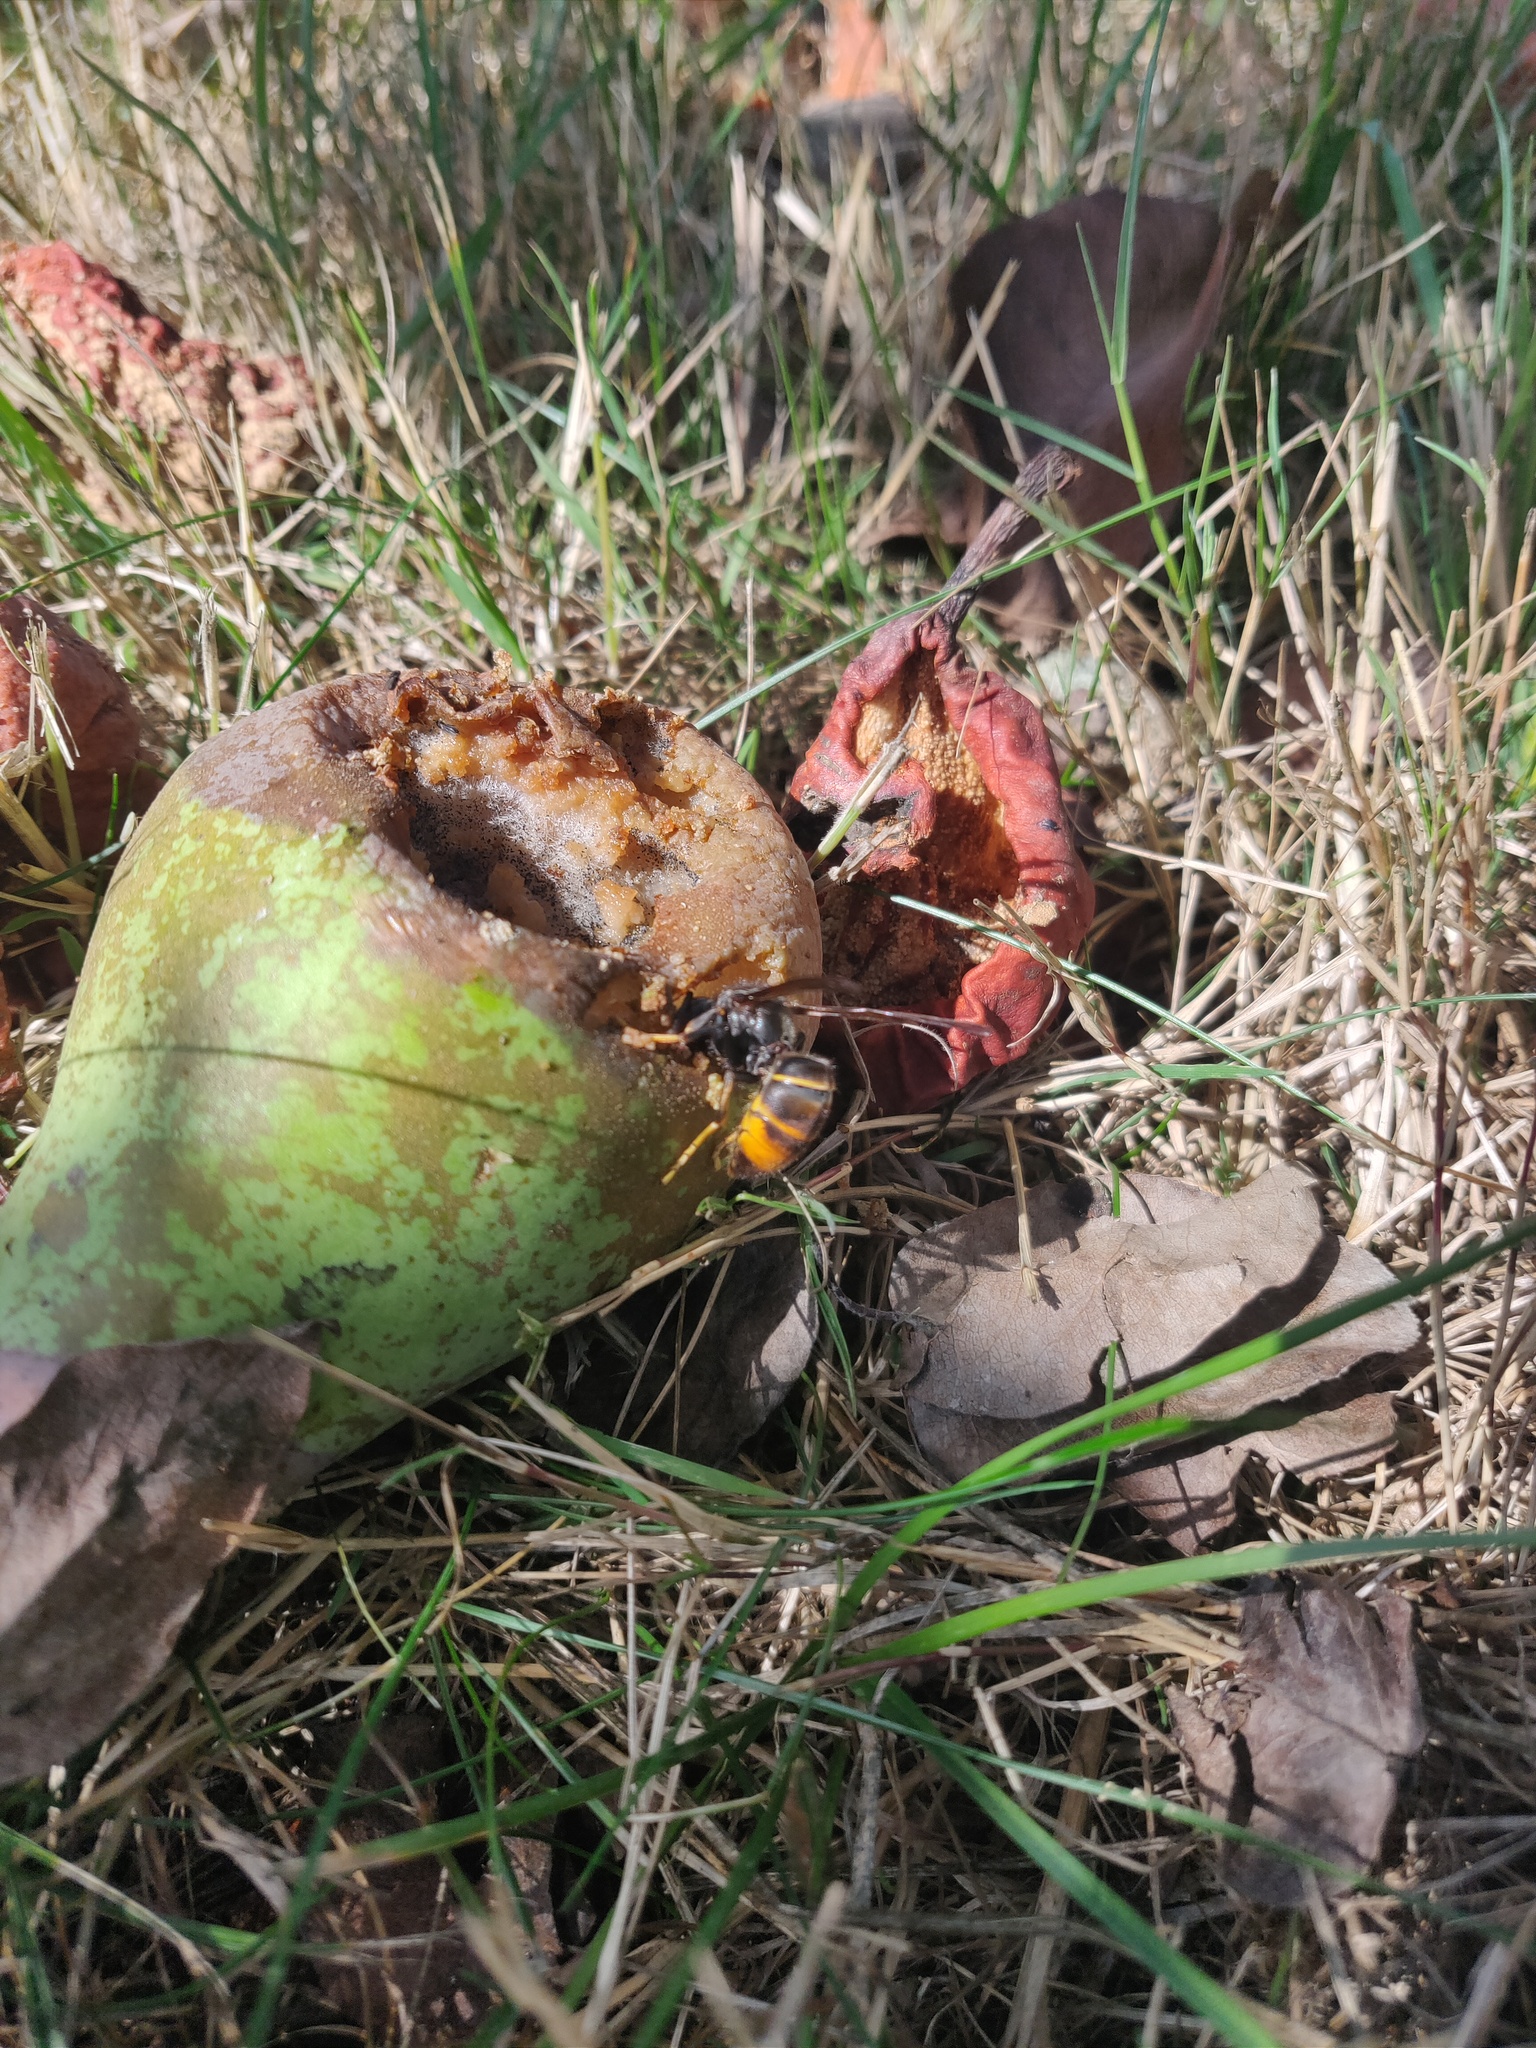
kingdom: Animalia
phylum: Arthropoda
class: Insecta
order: Hymenoptera
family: Vespidae
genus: Vespa
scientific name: Vespa velutina
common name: Asian hornet
